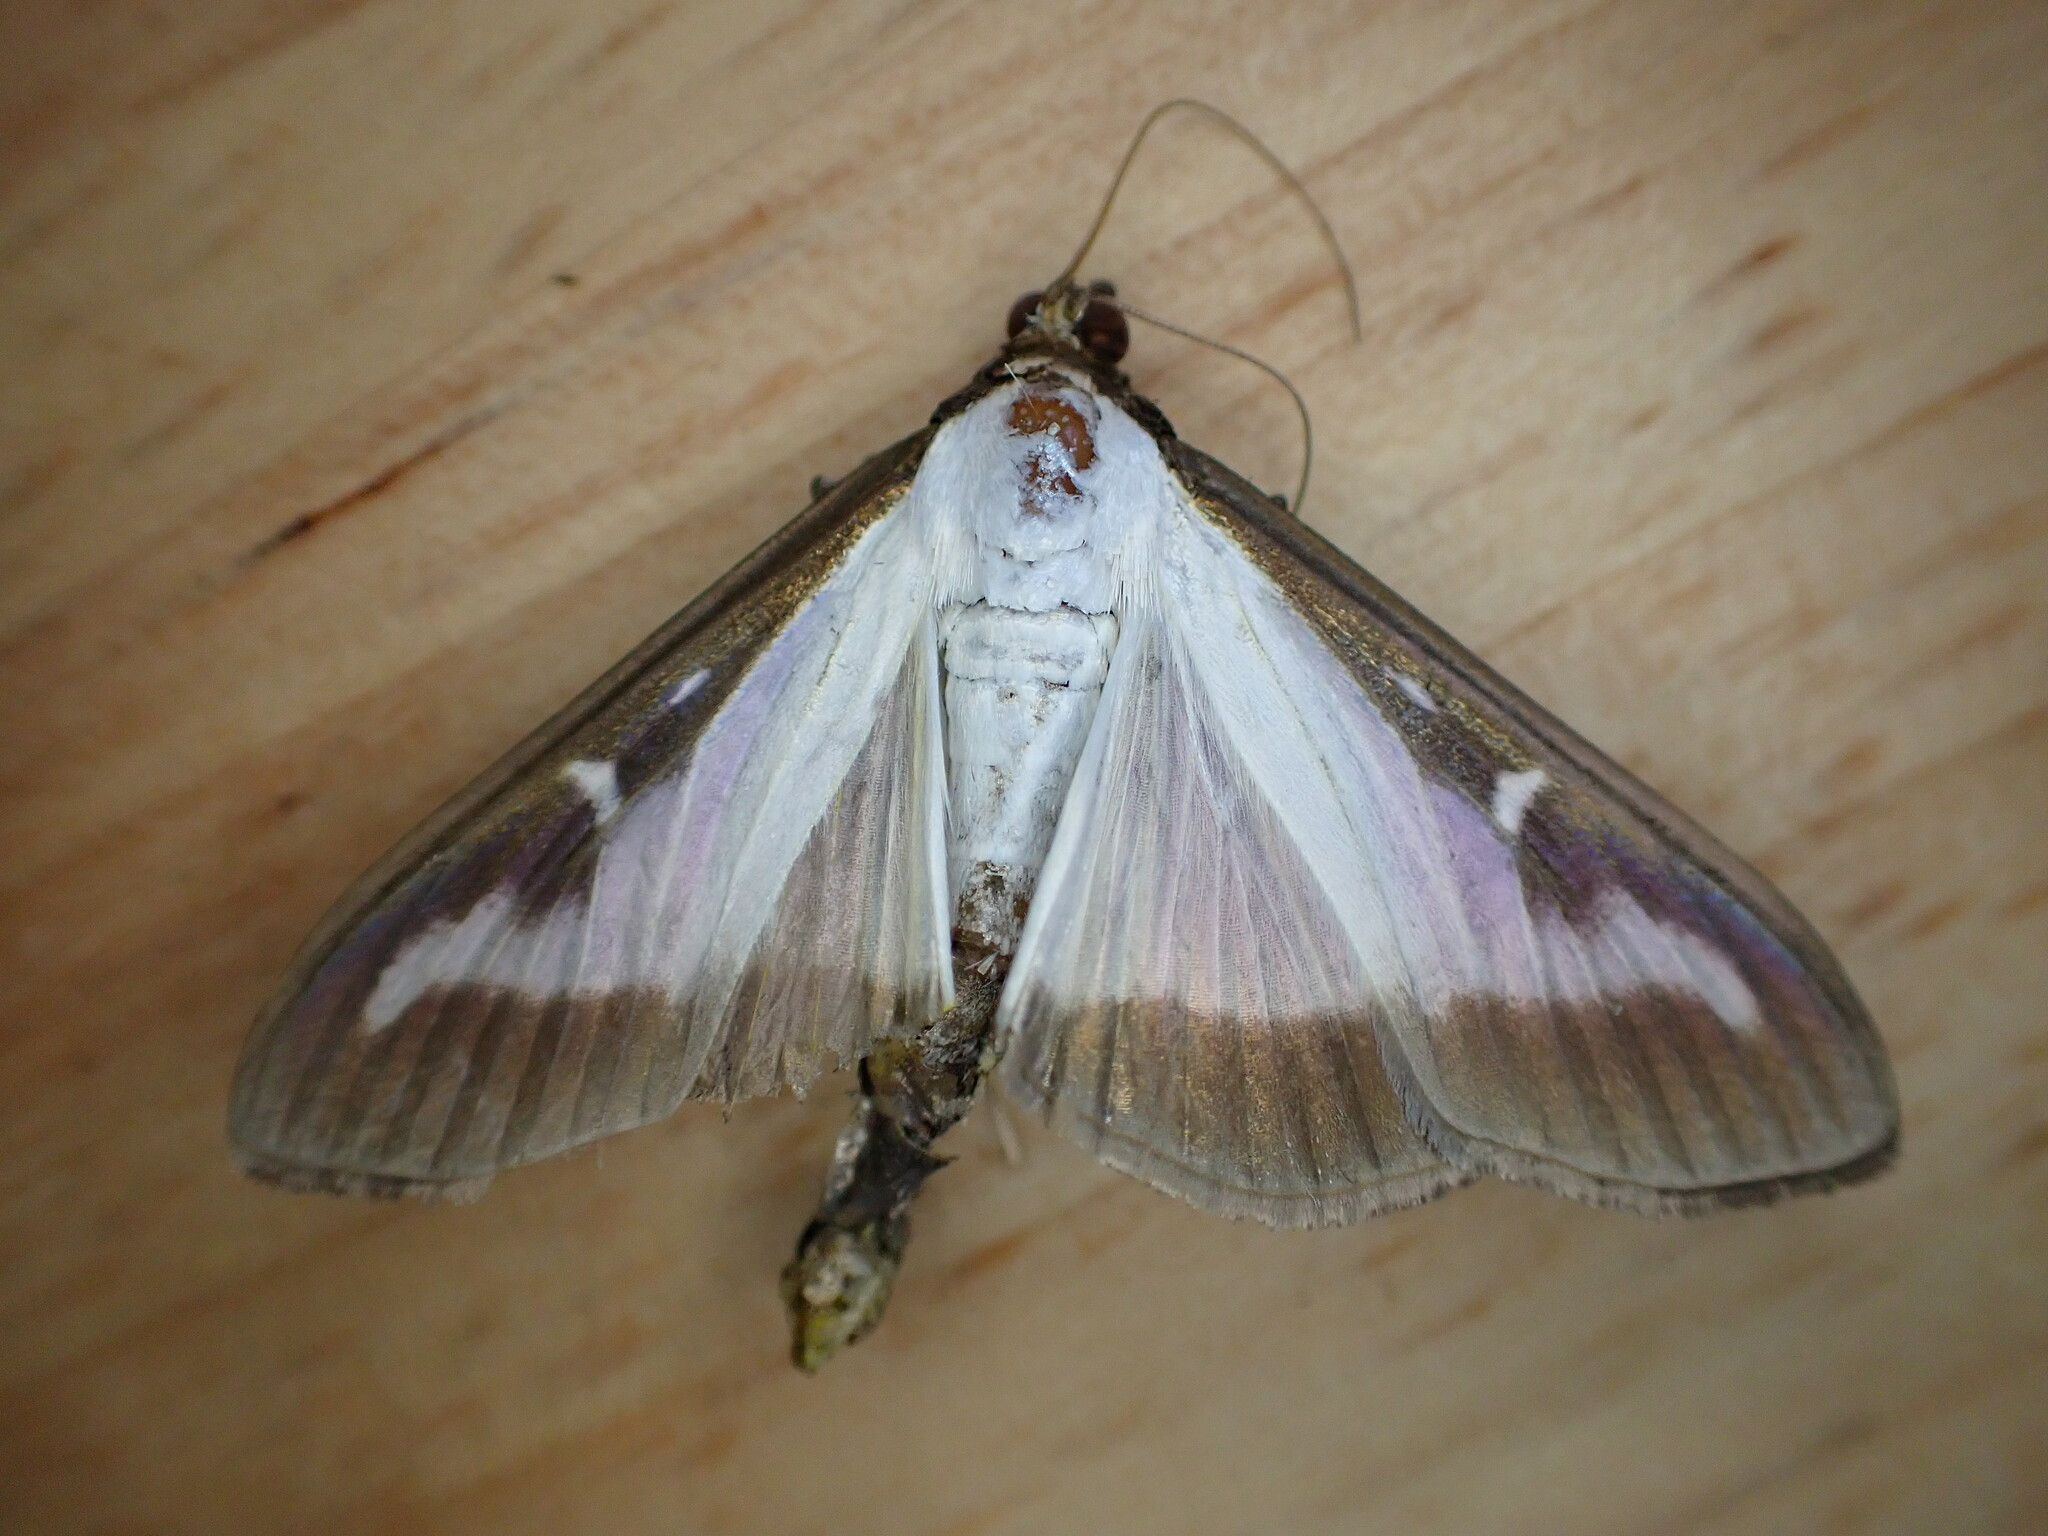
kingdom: Animalia
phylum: Arthropoda
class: Insecta
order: Lepidoptera
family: Crambidae
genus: Cydalima
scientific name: Cydalima perspectalis
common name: Box tree moth
